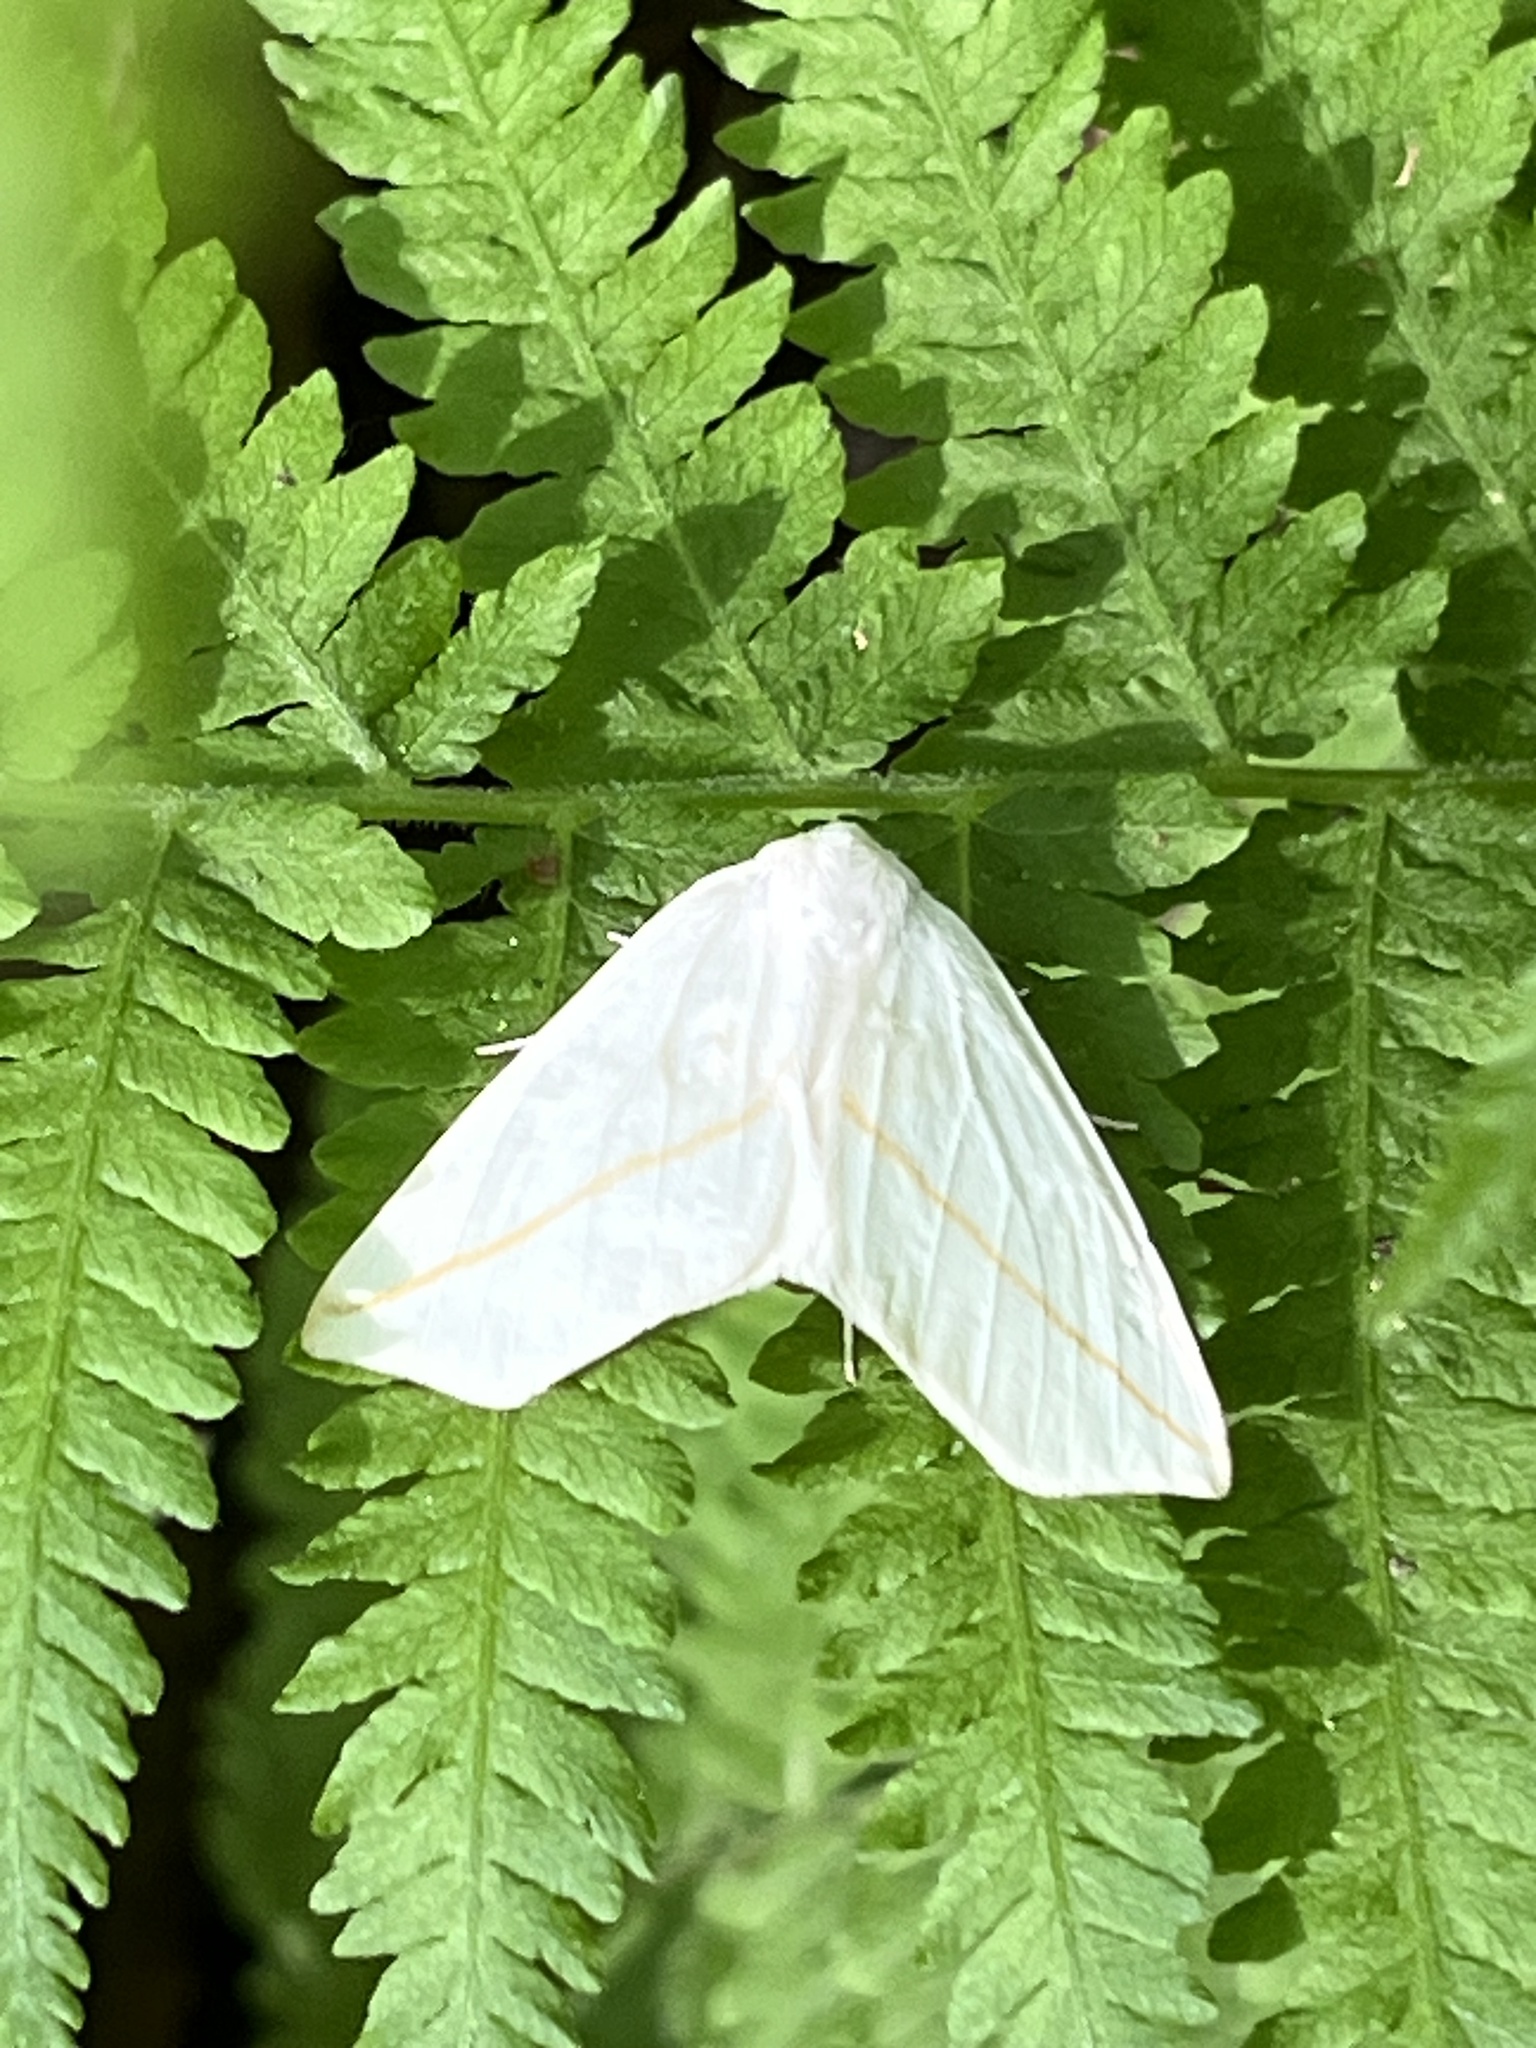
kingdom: Animalia
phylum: Arthropoda
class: Insecta
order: Lepidoptera
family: Geometridae
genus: Tetracis
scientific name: Tetracis cachexiata
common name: White slant-line
